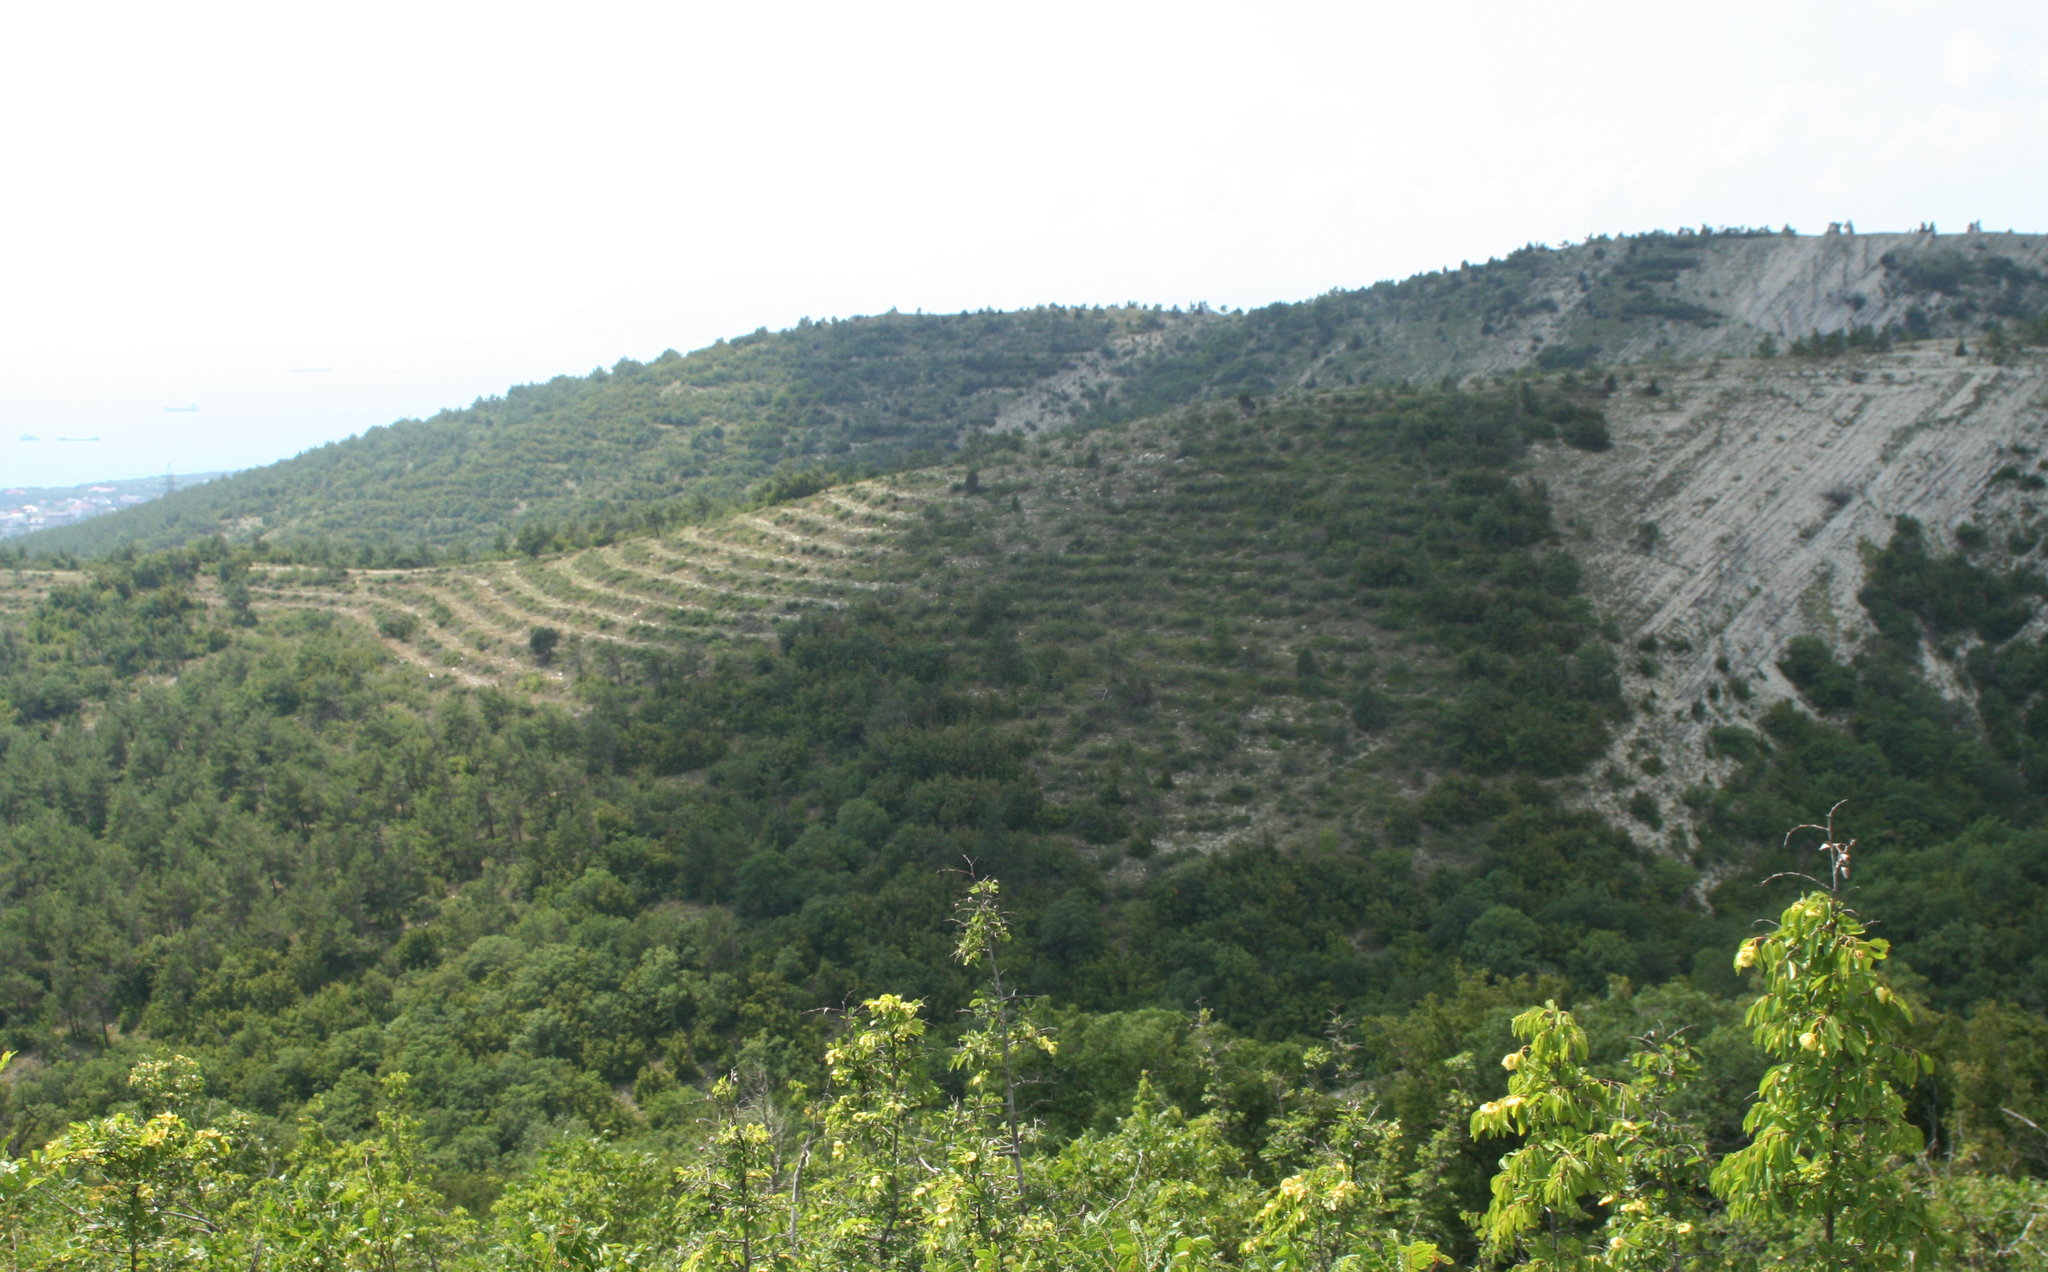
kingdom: Plantae
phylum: Tracheophyta
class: Magnoliopsida
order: Rosales
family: Rhamnaceae
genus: Paliurus
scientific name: Paliurus spina-christi
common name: Jeruselem thorn
